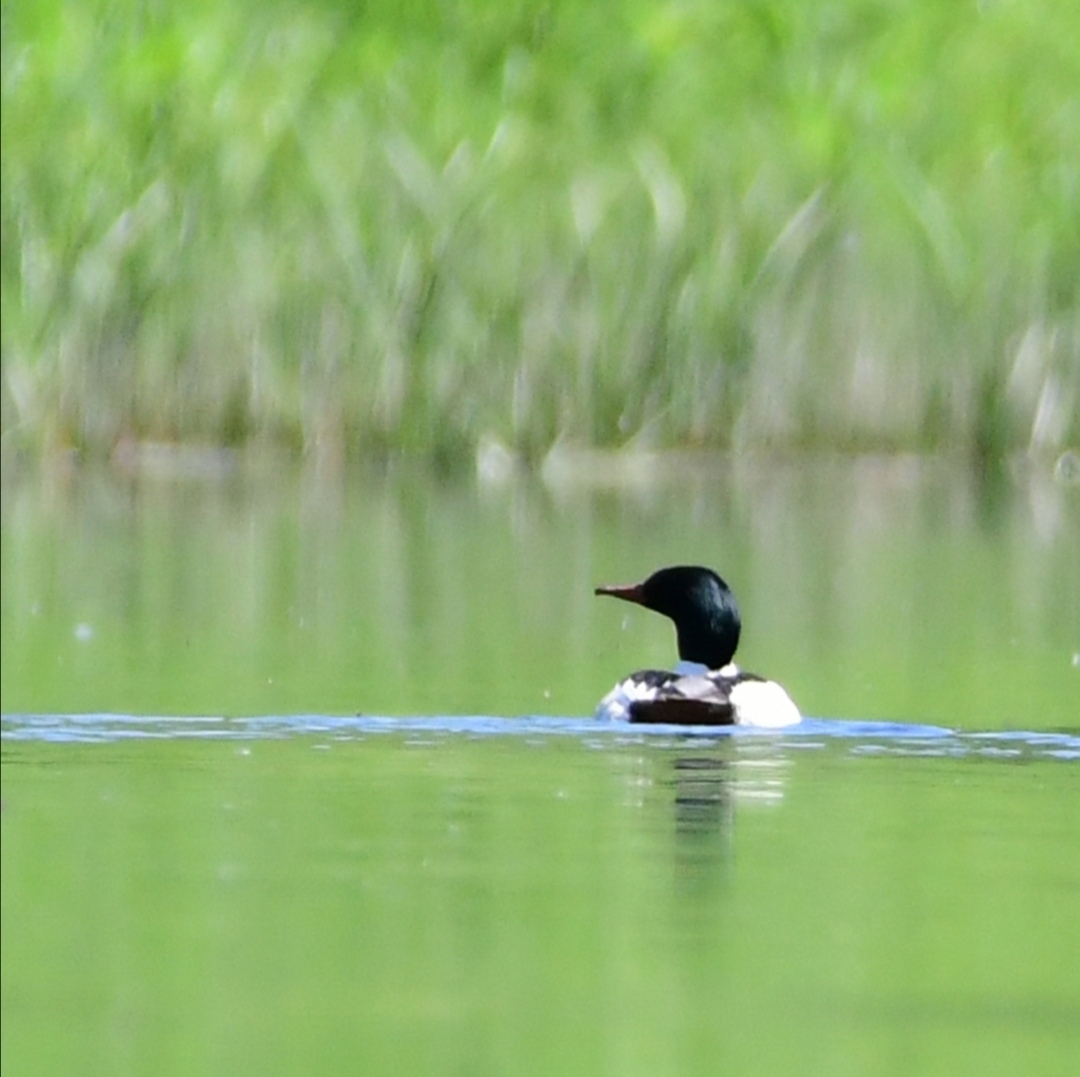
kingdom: Animalia
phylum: Chordata
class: Aves
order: Anseriformes
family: Anatidae
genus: Mergus
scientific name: Mergus merganser
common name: Common merganser
